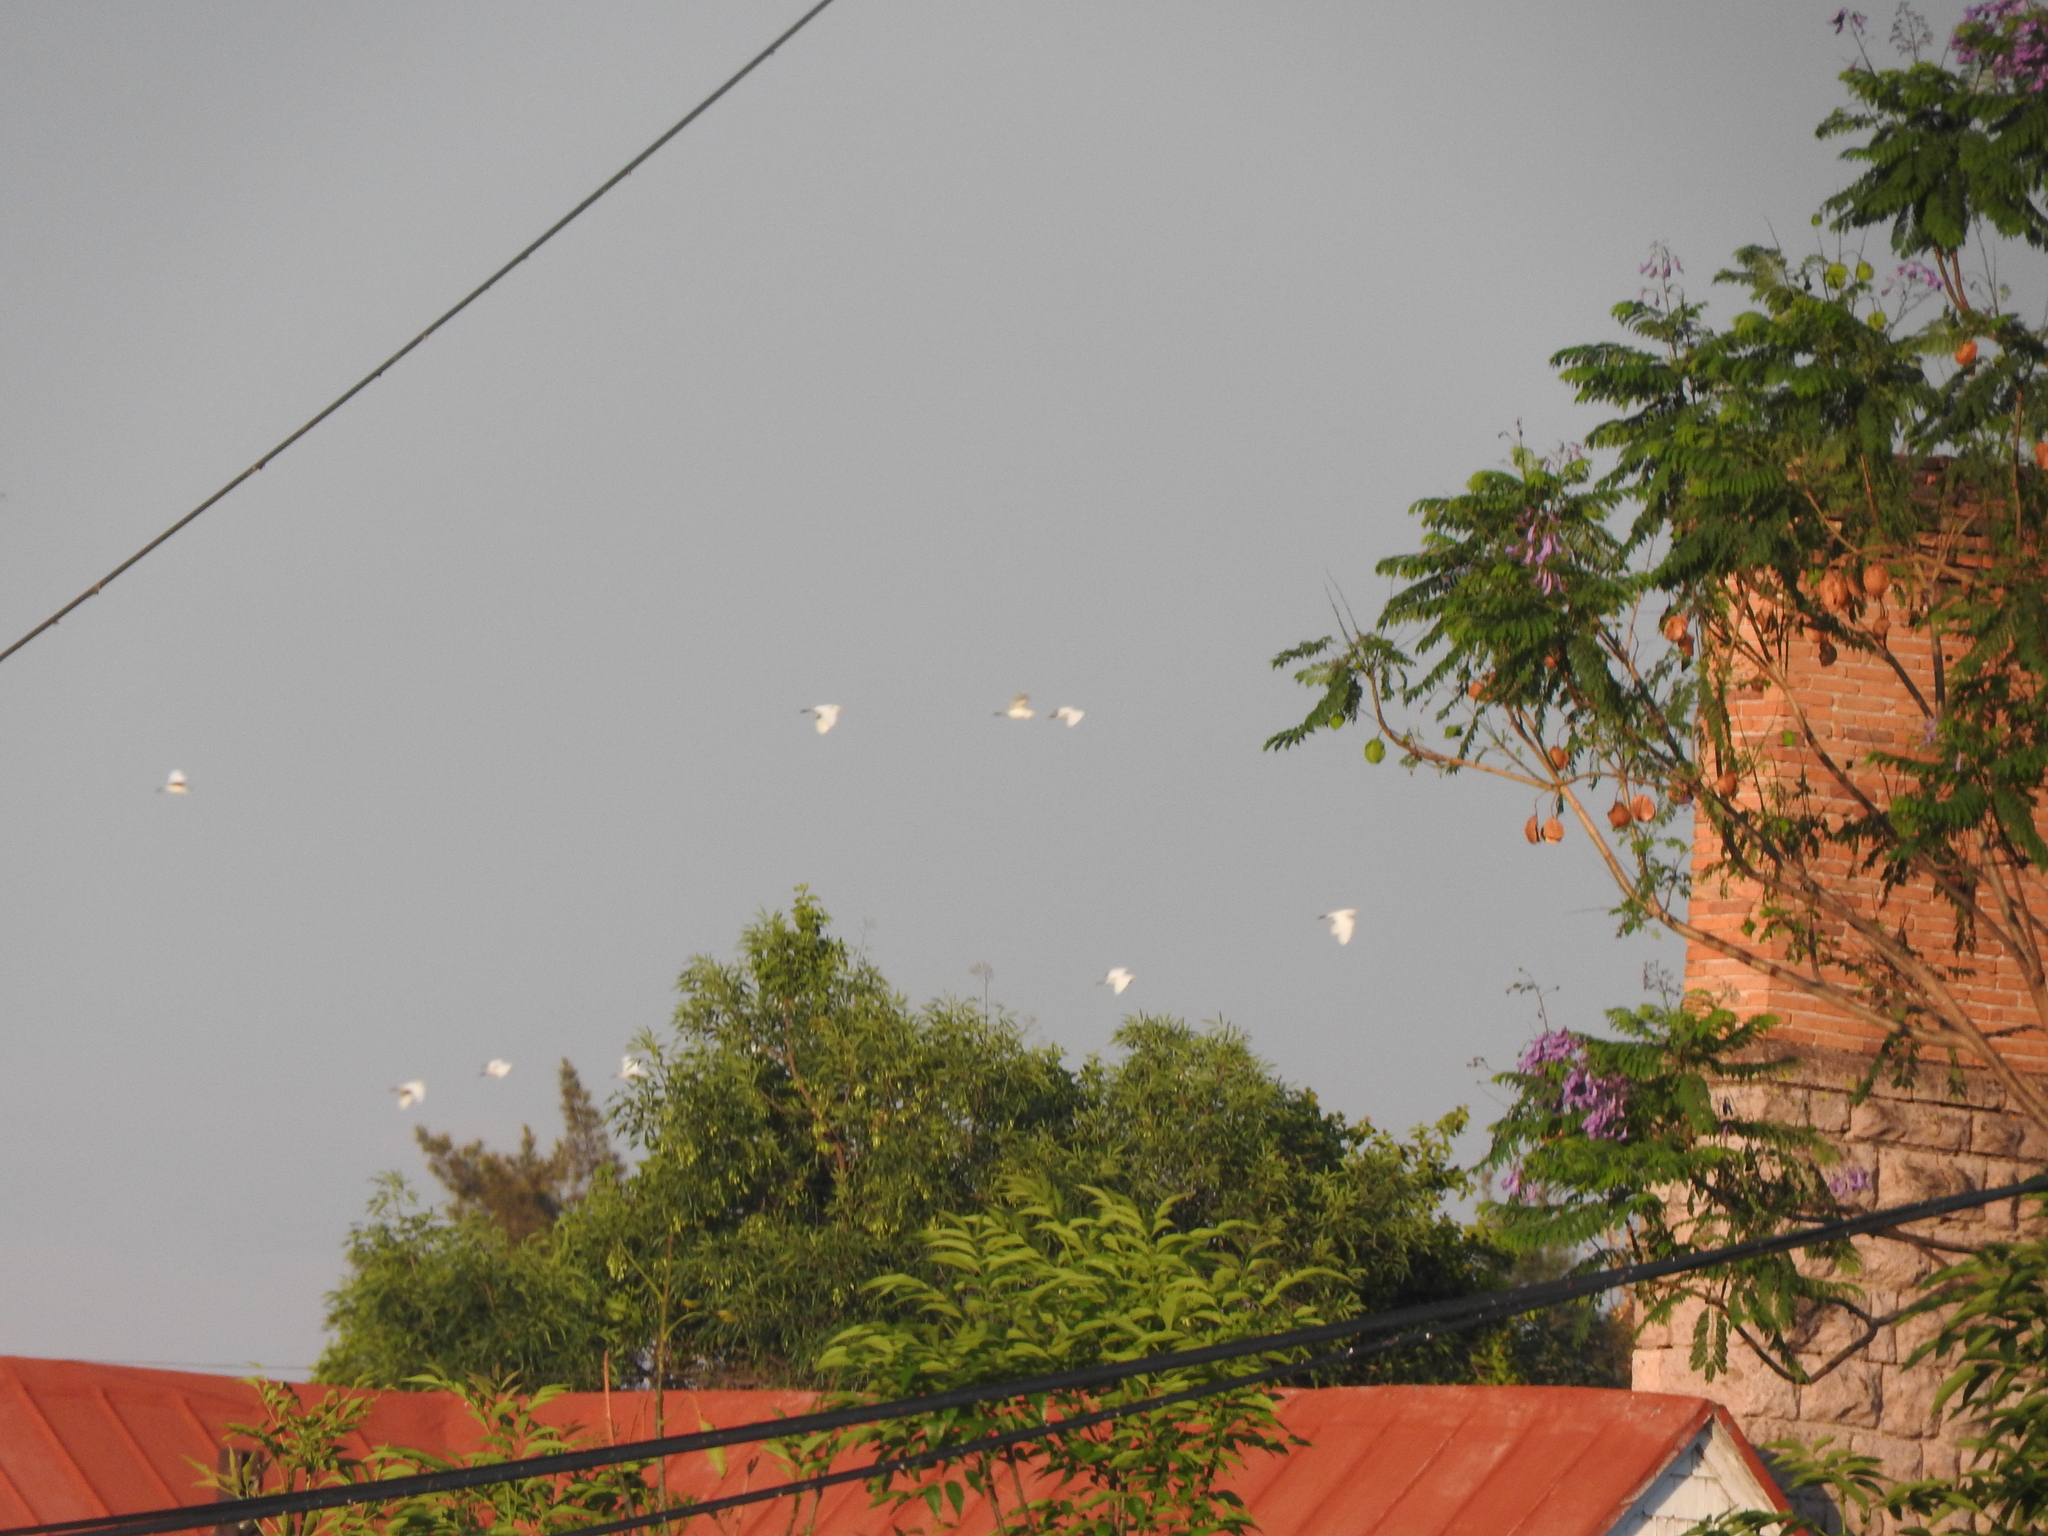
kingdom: Animalia
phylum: Chordata
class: Aves
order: Pelecaniformes
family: Ardeidae
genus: Bubulcus
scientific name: Bubulcus ibis
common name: Cattle egret
